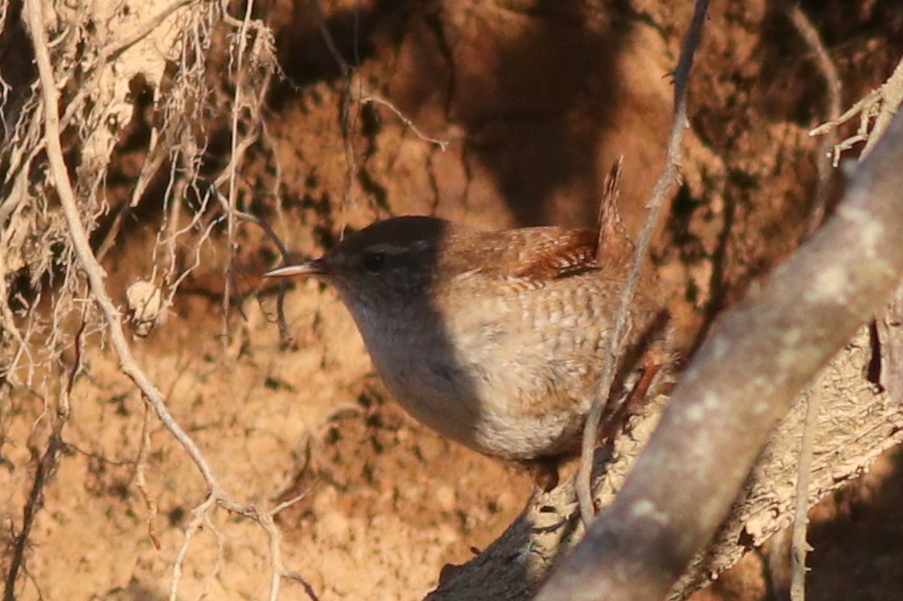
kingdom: Animalia
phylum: Chordata
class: Aves
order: Passeriformes
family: Troglodytidae
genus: Troglodytes
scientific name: Troglodytes troglodytes
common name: Eurasian wren
